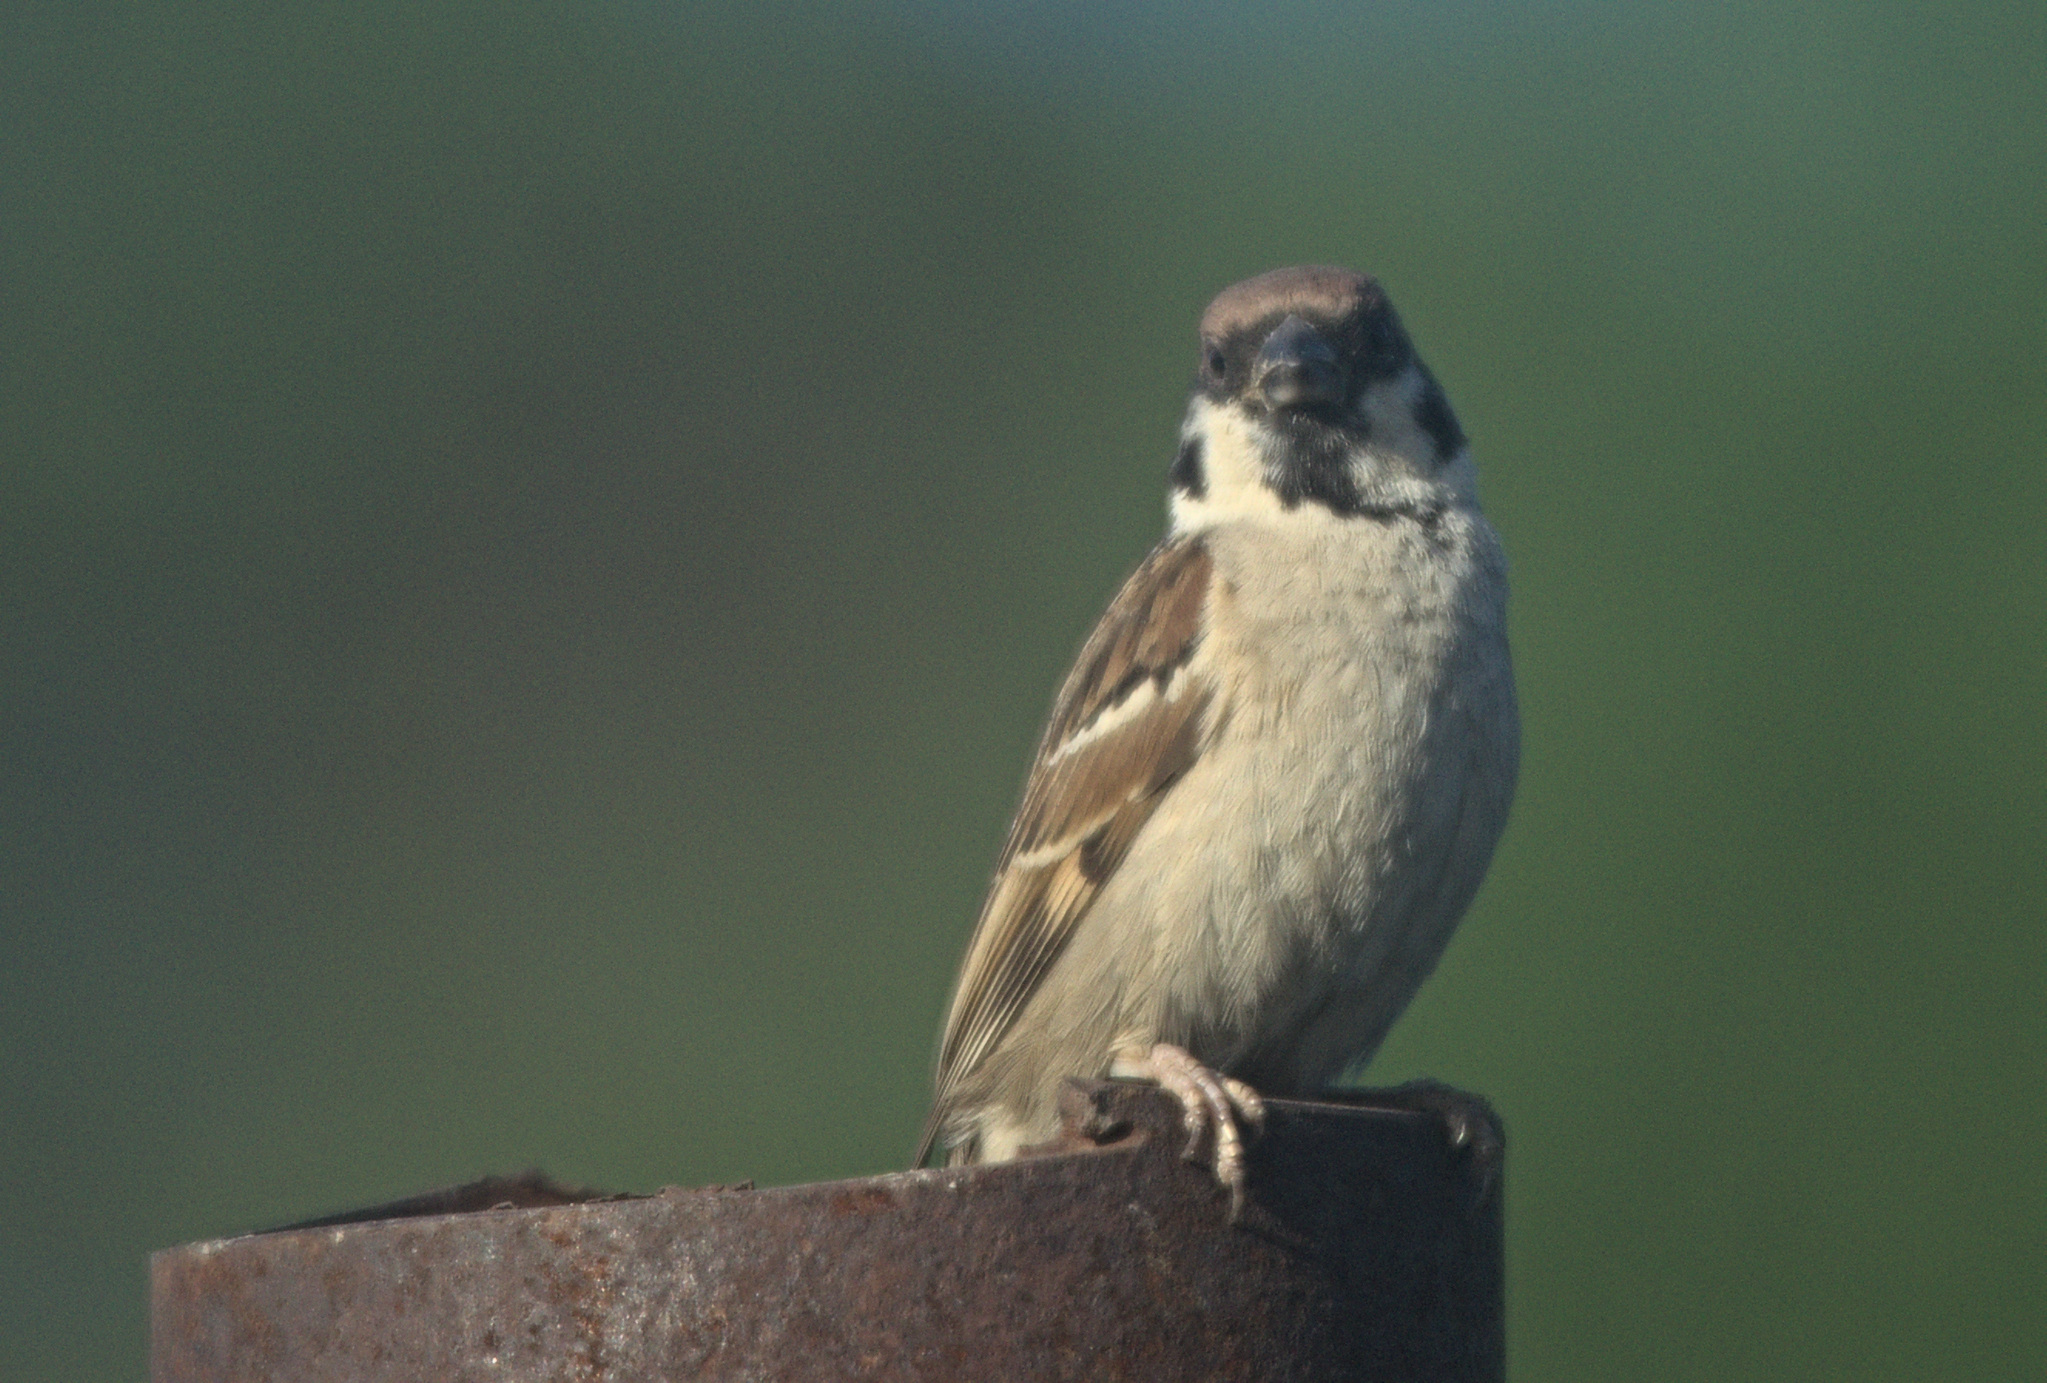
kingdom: Animalia
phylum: Chordata
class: Aves
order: Passeriformes
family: Passeridae
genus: Passer
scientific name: Passer montanus
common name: Eurasian tree sparrow
